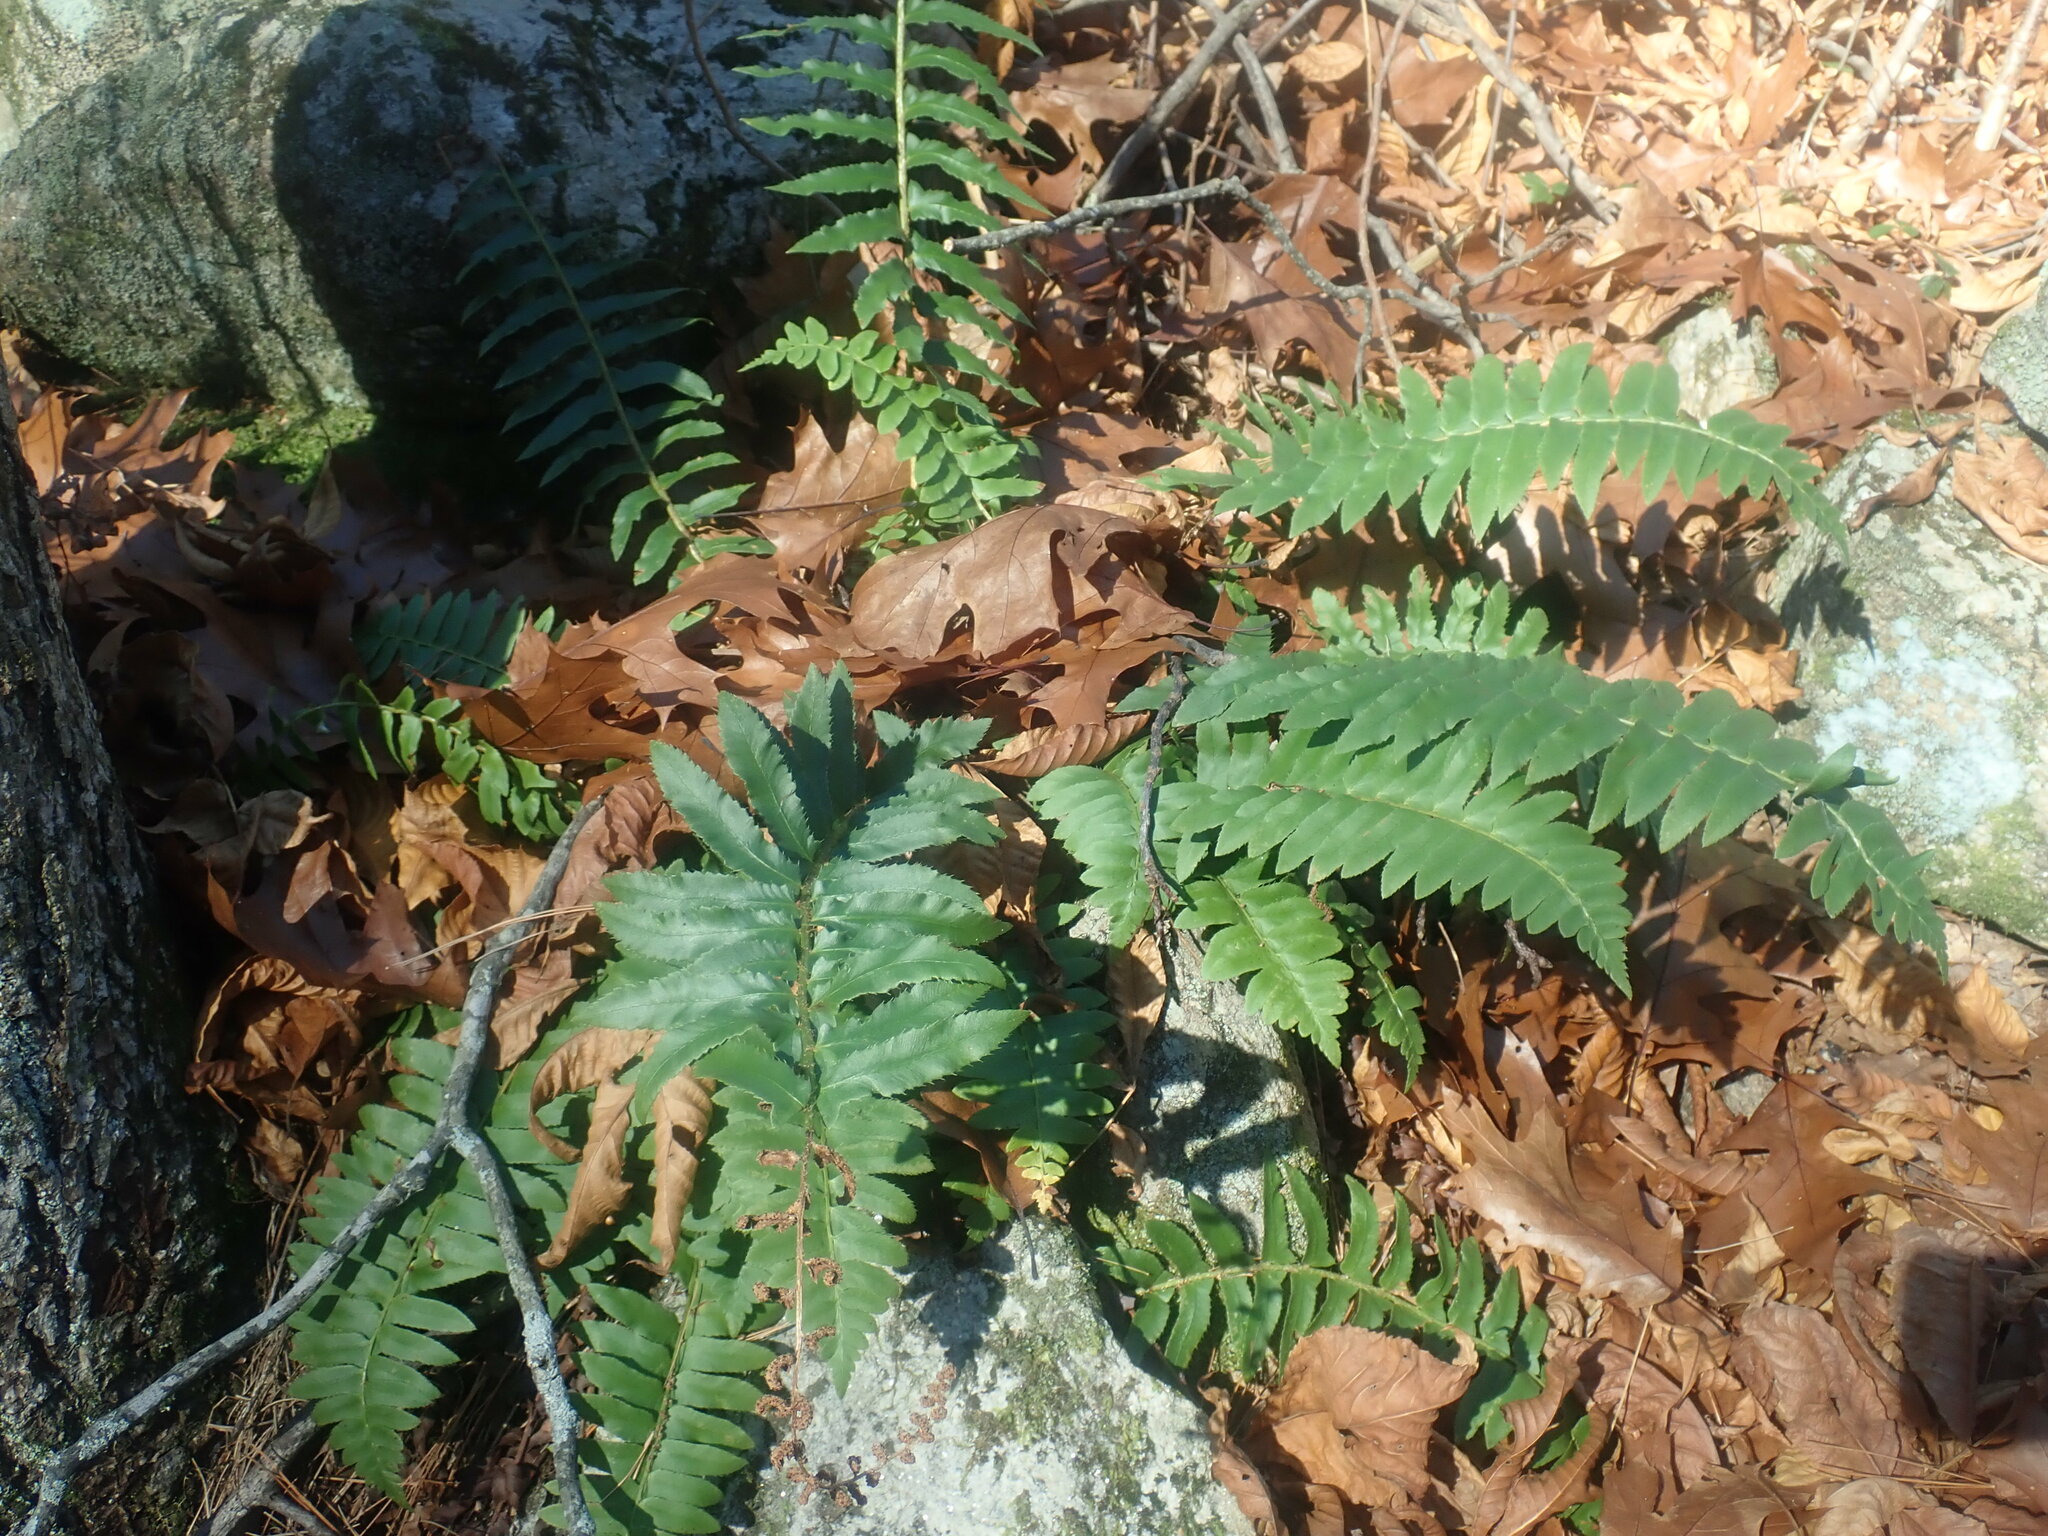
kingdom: Plantae
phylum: Tracheophyta
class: Polypodiopsida
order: Polypodiales
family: Dryopteridaceae
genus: Polystichum
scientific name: Polystichum acrostichoides
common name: Christmas fern
